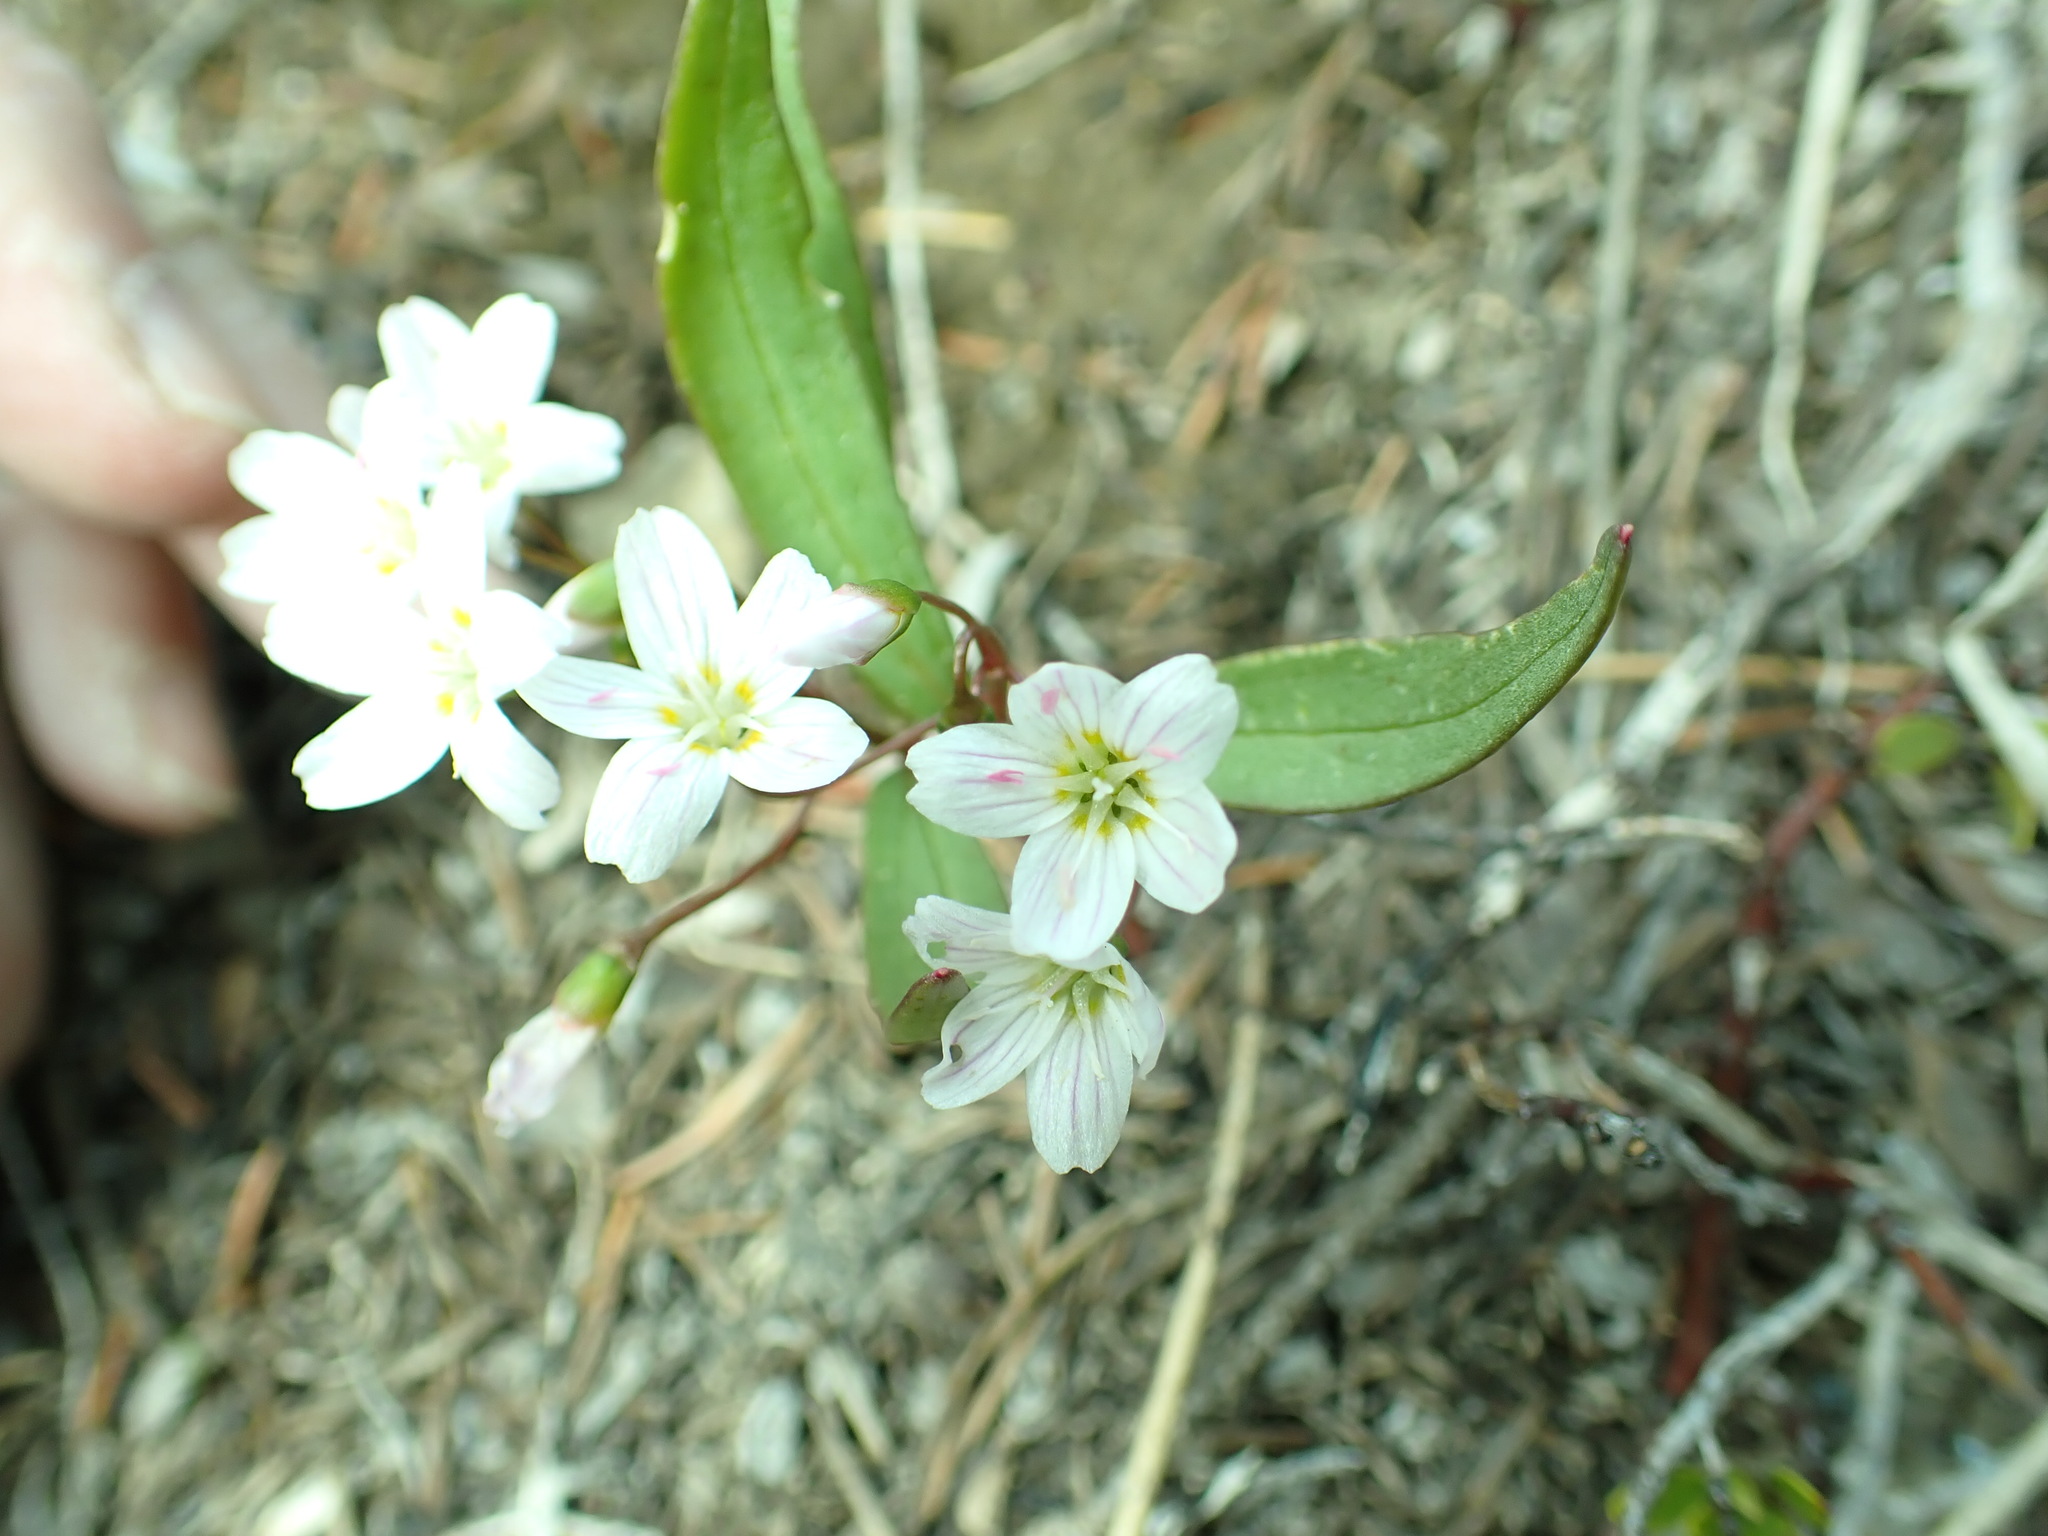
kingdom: Plantae
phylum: Tracheophyta
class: Magnoliopsida
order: Caryophyllales
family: Montiaceae
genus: Claytonia
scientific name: Claytonia lanceolata
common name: Western spring-beauty
